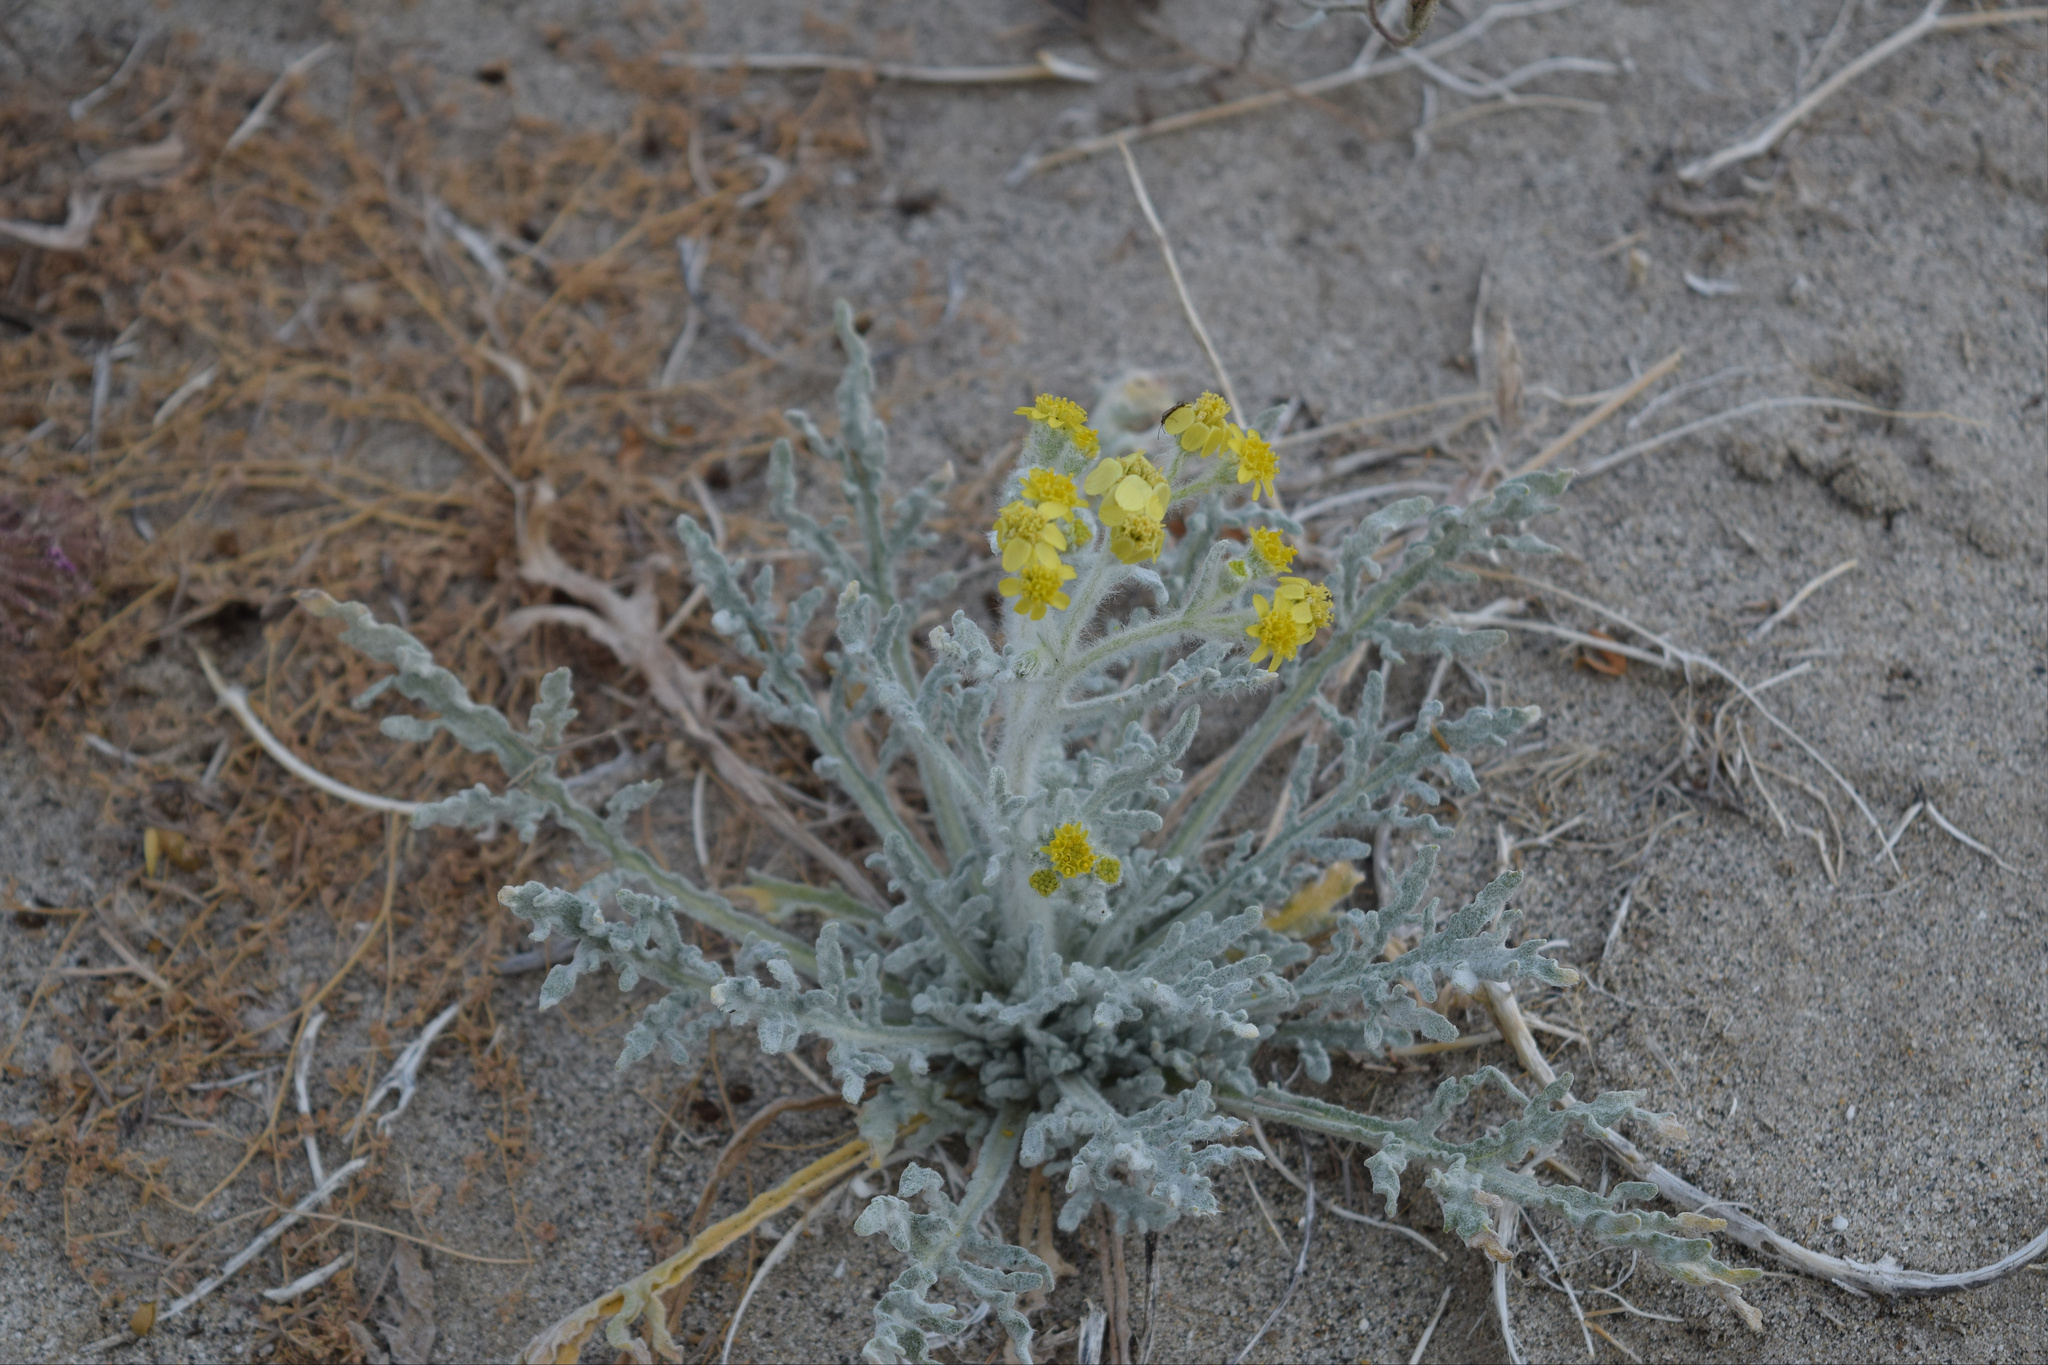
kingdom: Plantae
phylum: Tracheophyta
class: Magnoliopsida
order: Asterales
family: Asteraceae
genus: Baileya
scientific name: Baileya pauciradiata
